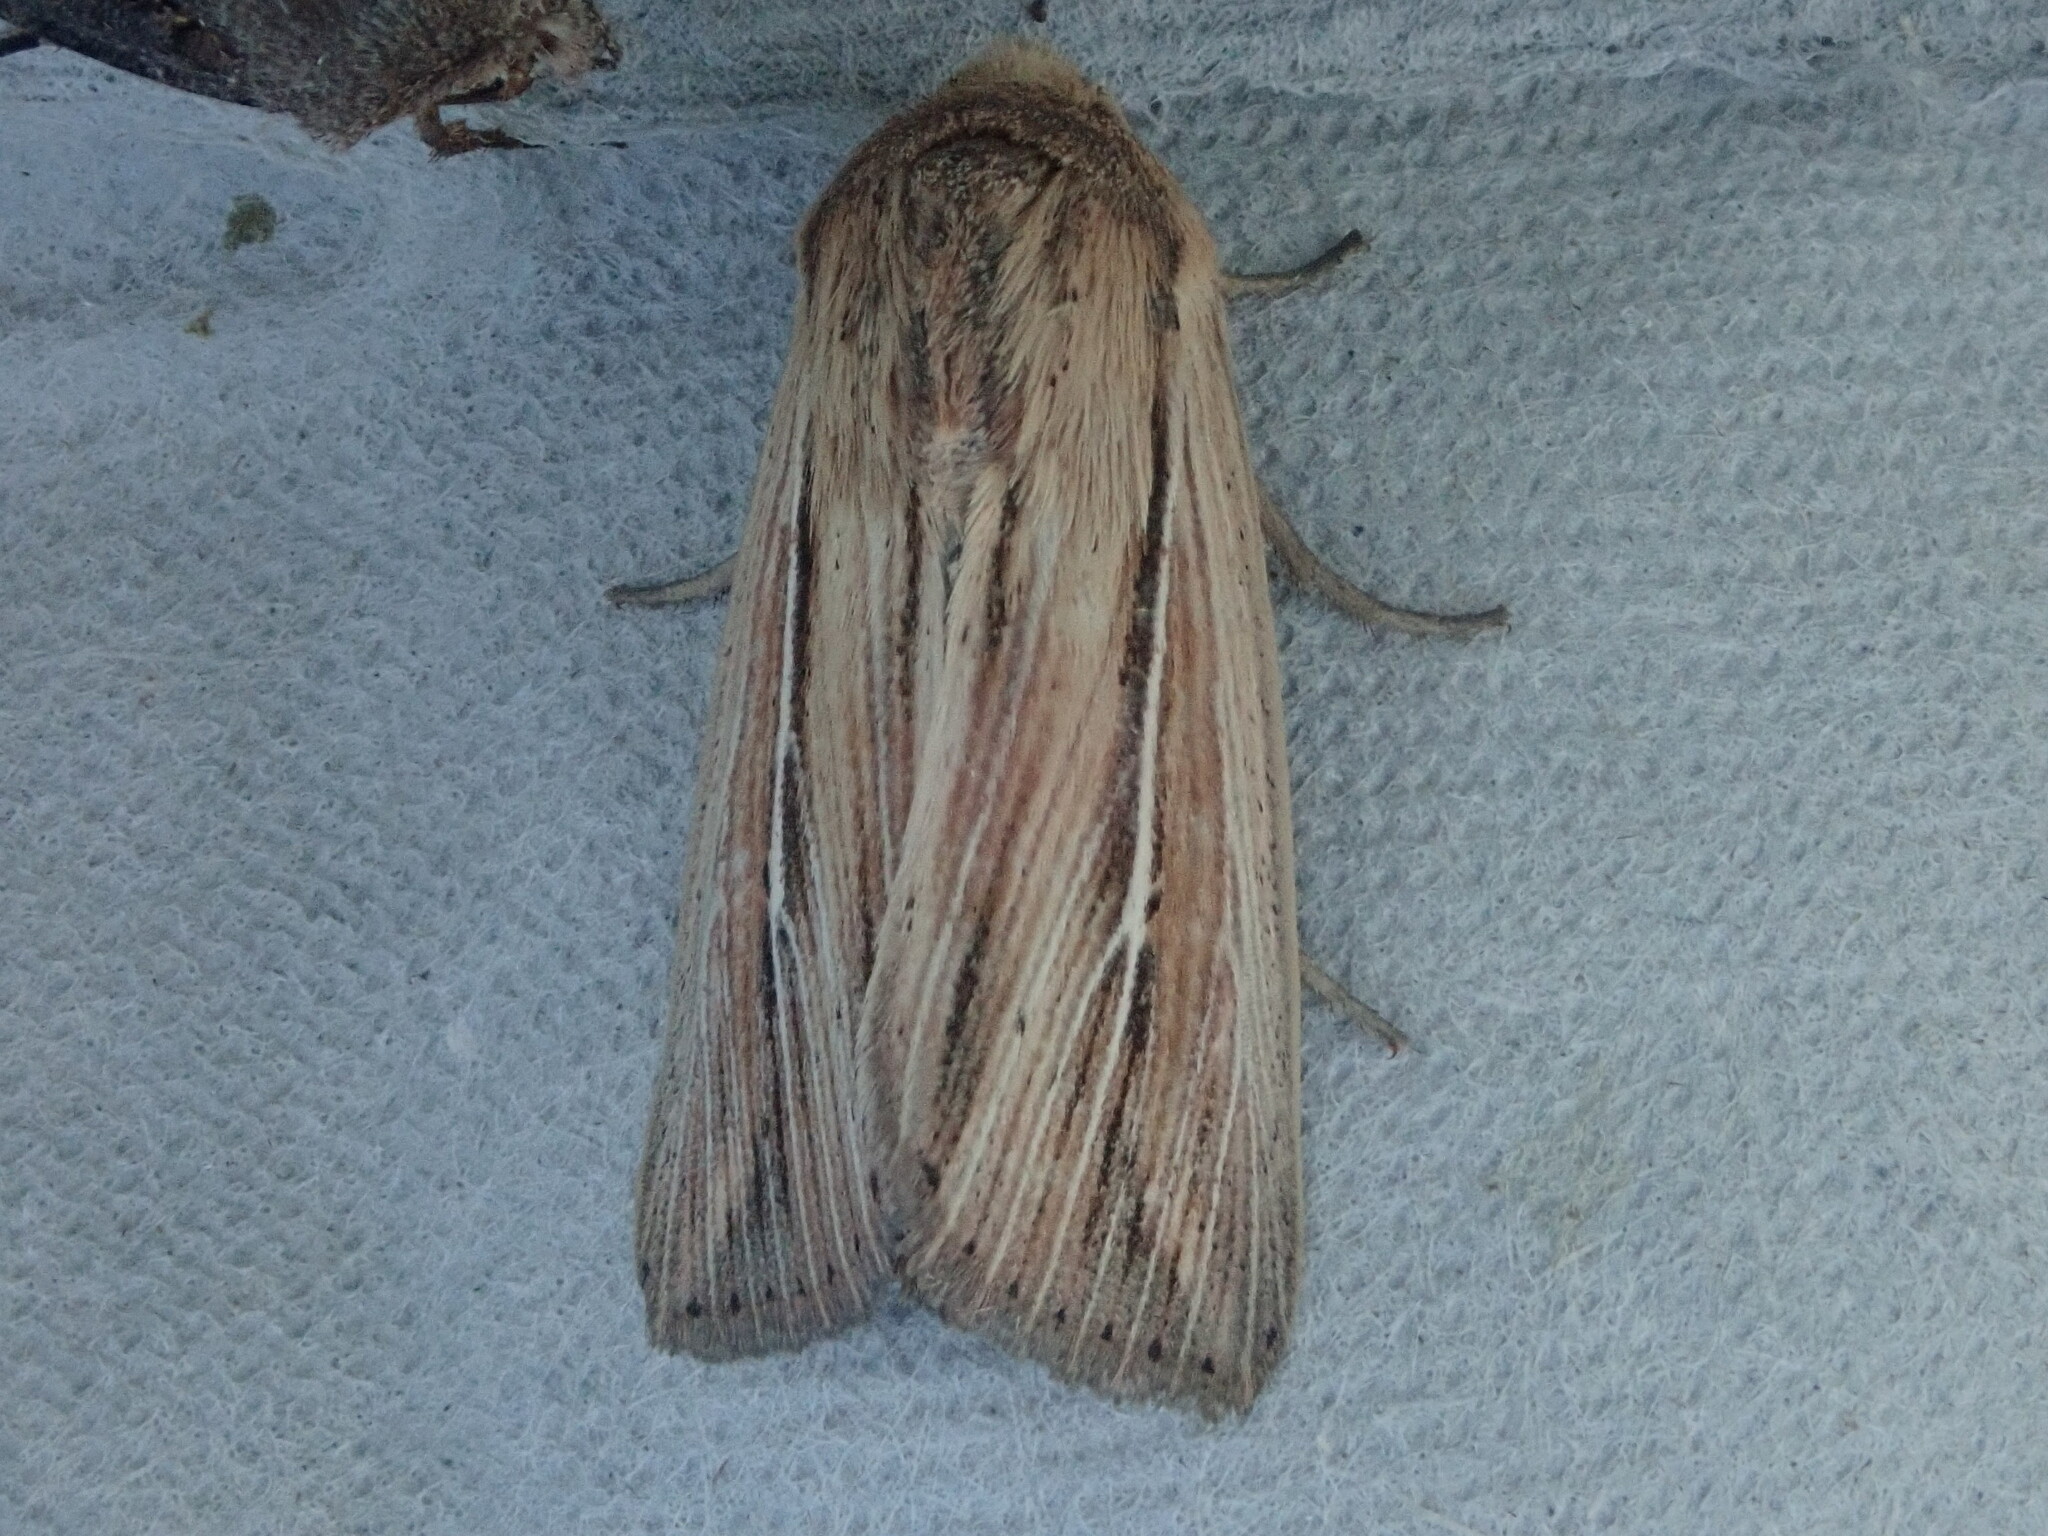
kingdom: Animalia
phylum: Arthropoda
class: Insecta
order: Lepidoptera
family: Noctuidae
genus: Leucania
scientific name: Leucania commoides
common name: Two-lined wainscot
